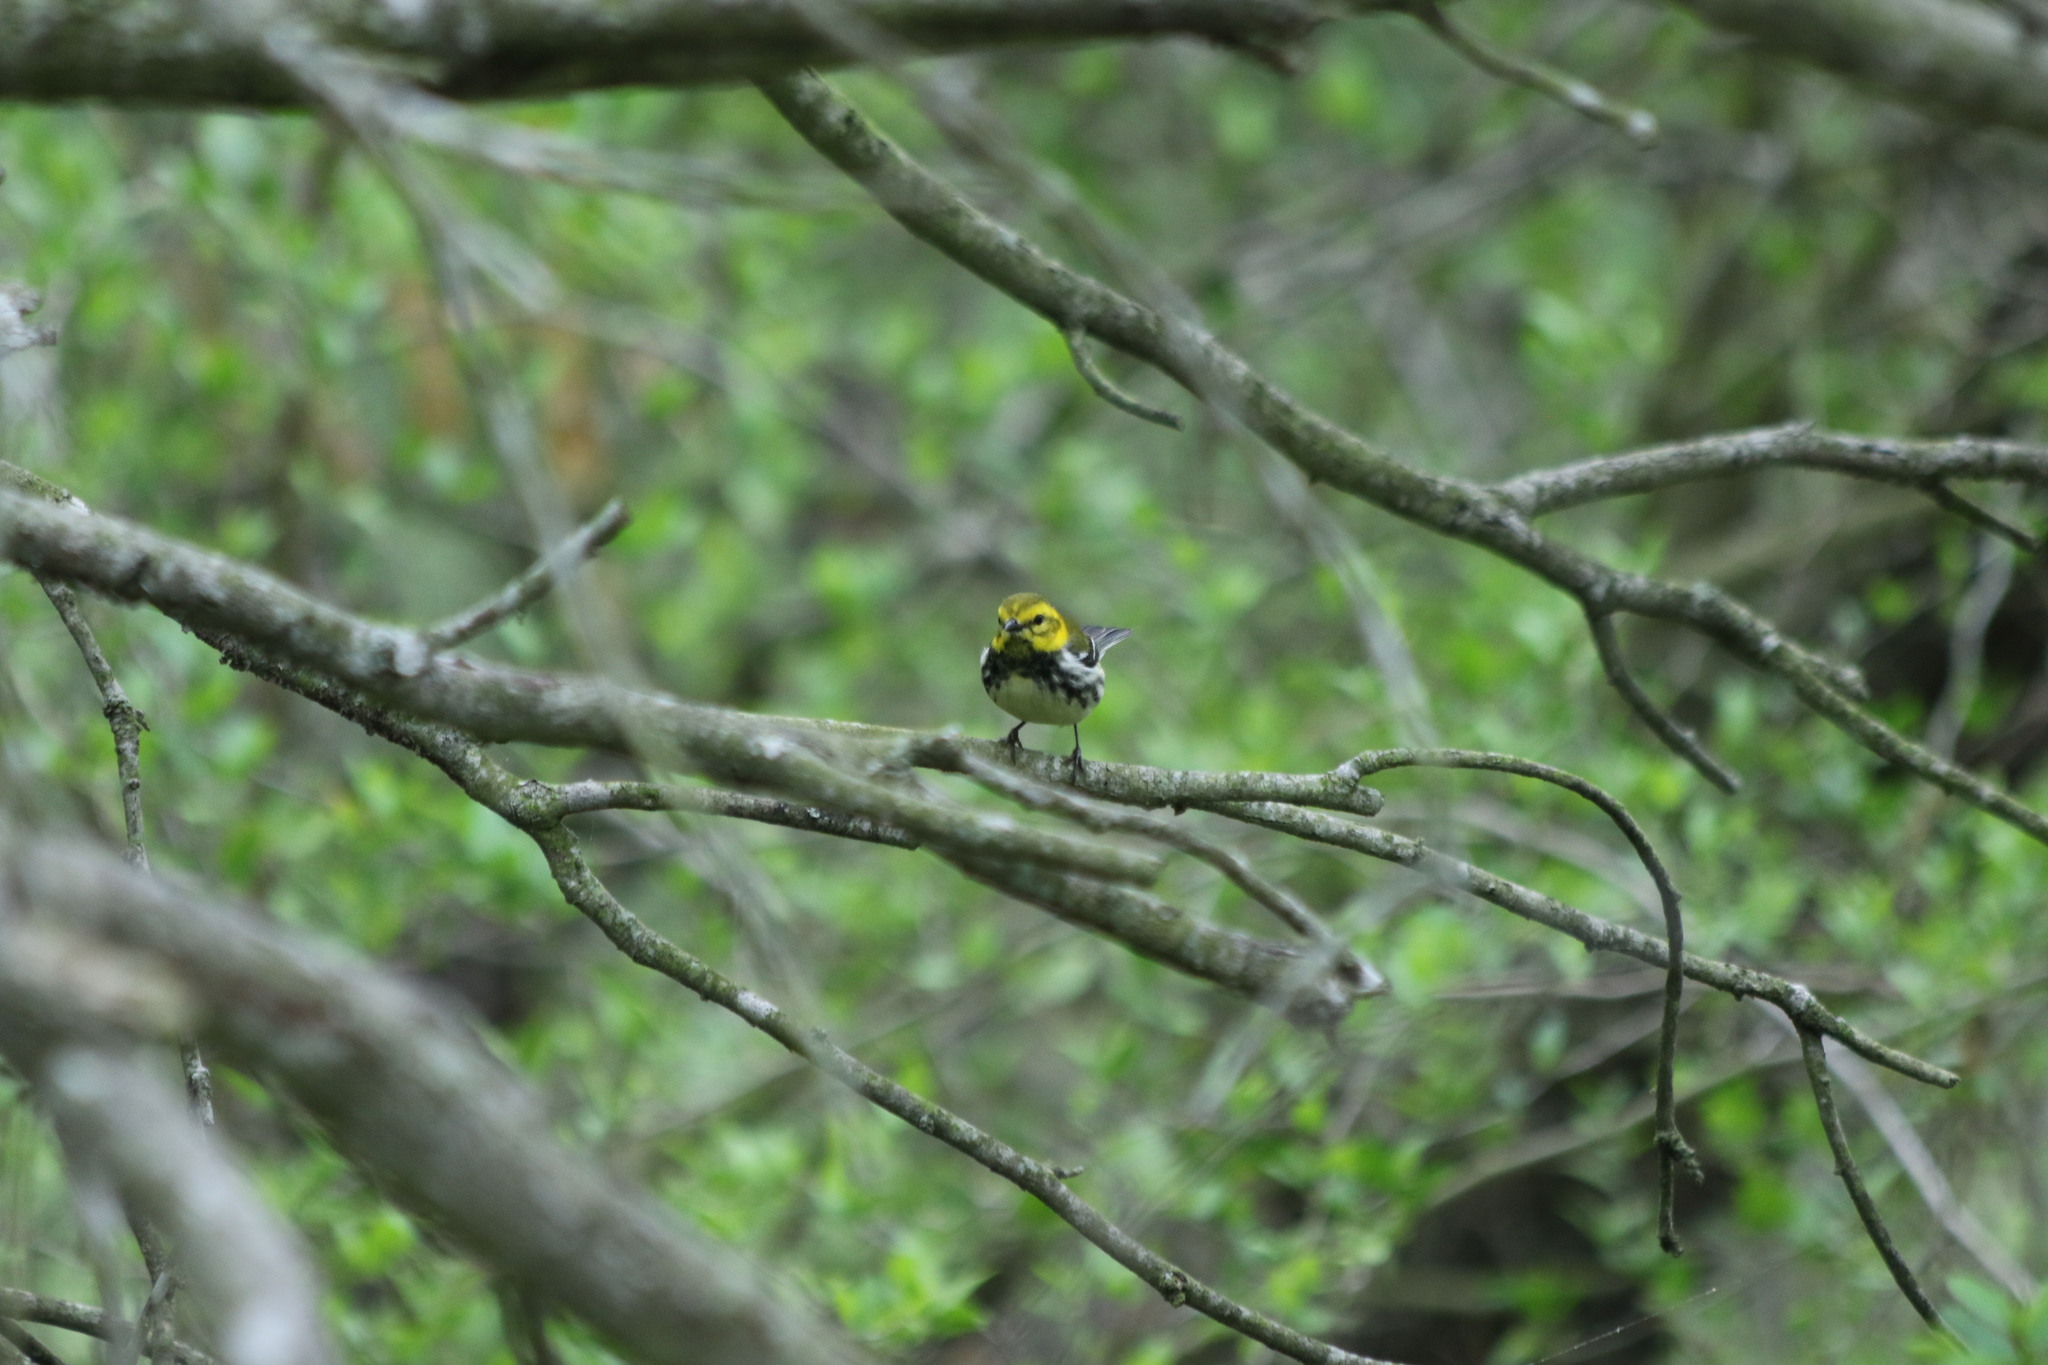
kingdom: Animalia
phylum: Chordata
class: Aves
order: Passeriformes
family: Parulidae
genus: Setophaga
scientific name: Setophaga virens
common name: Black-throated green warbler
